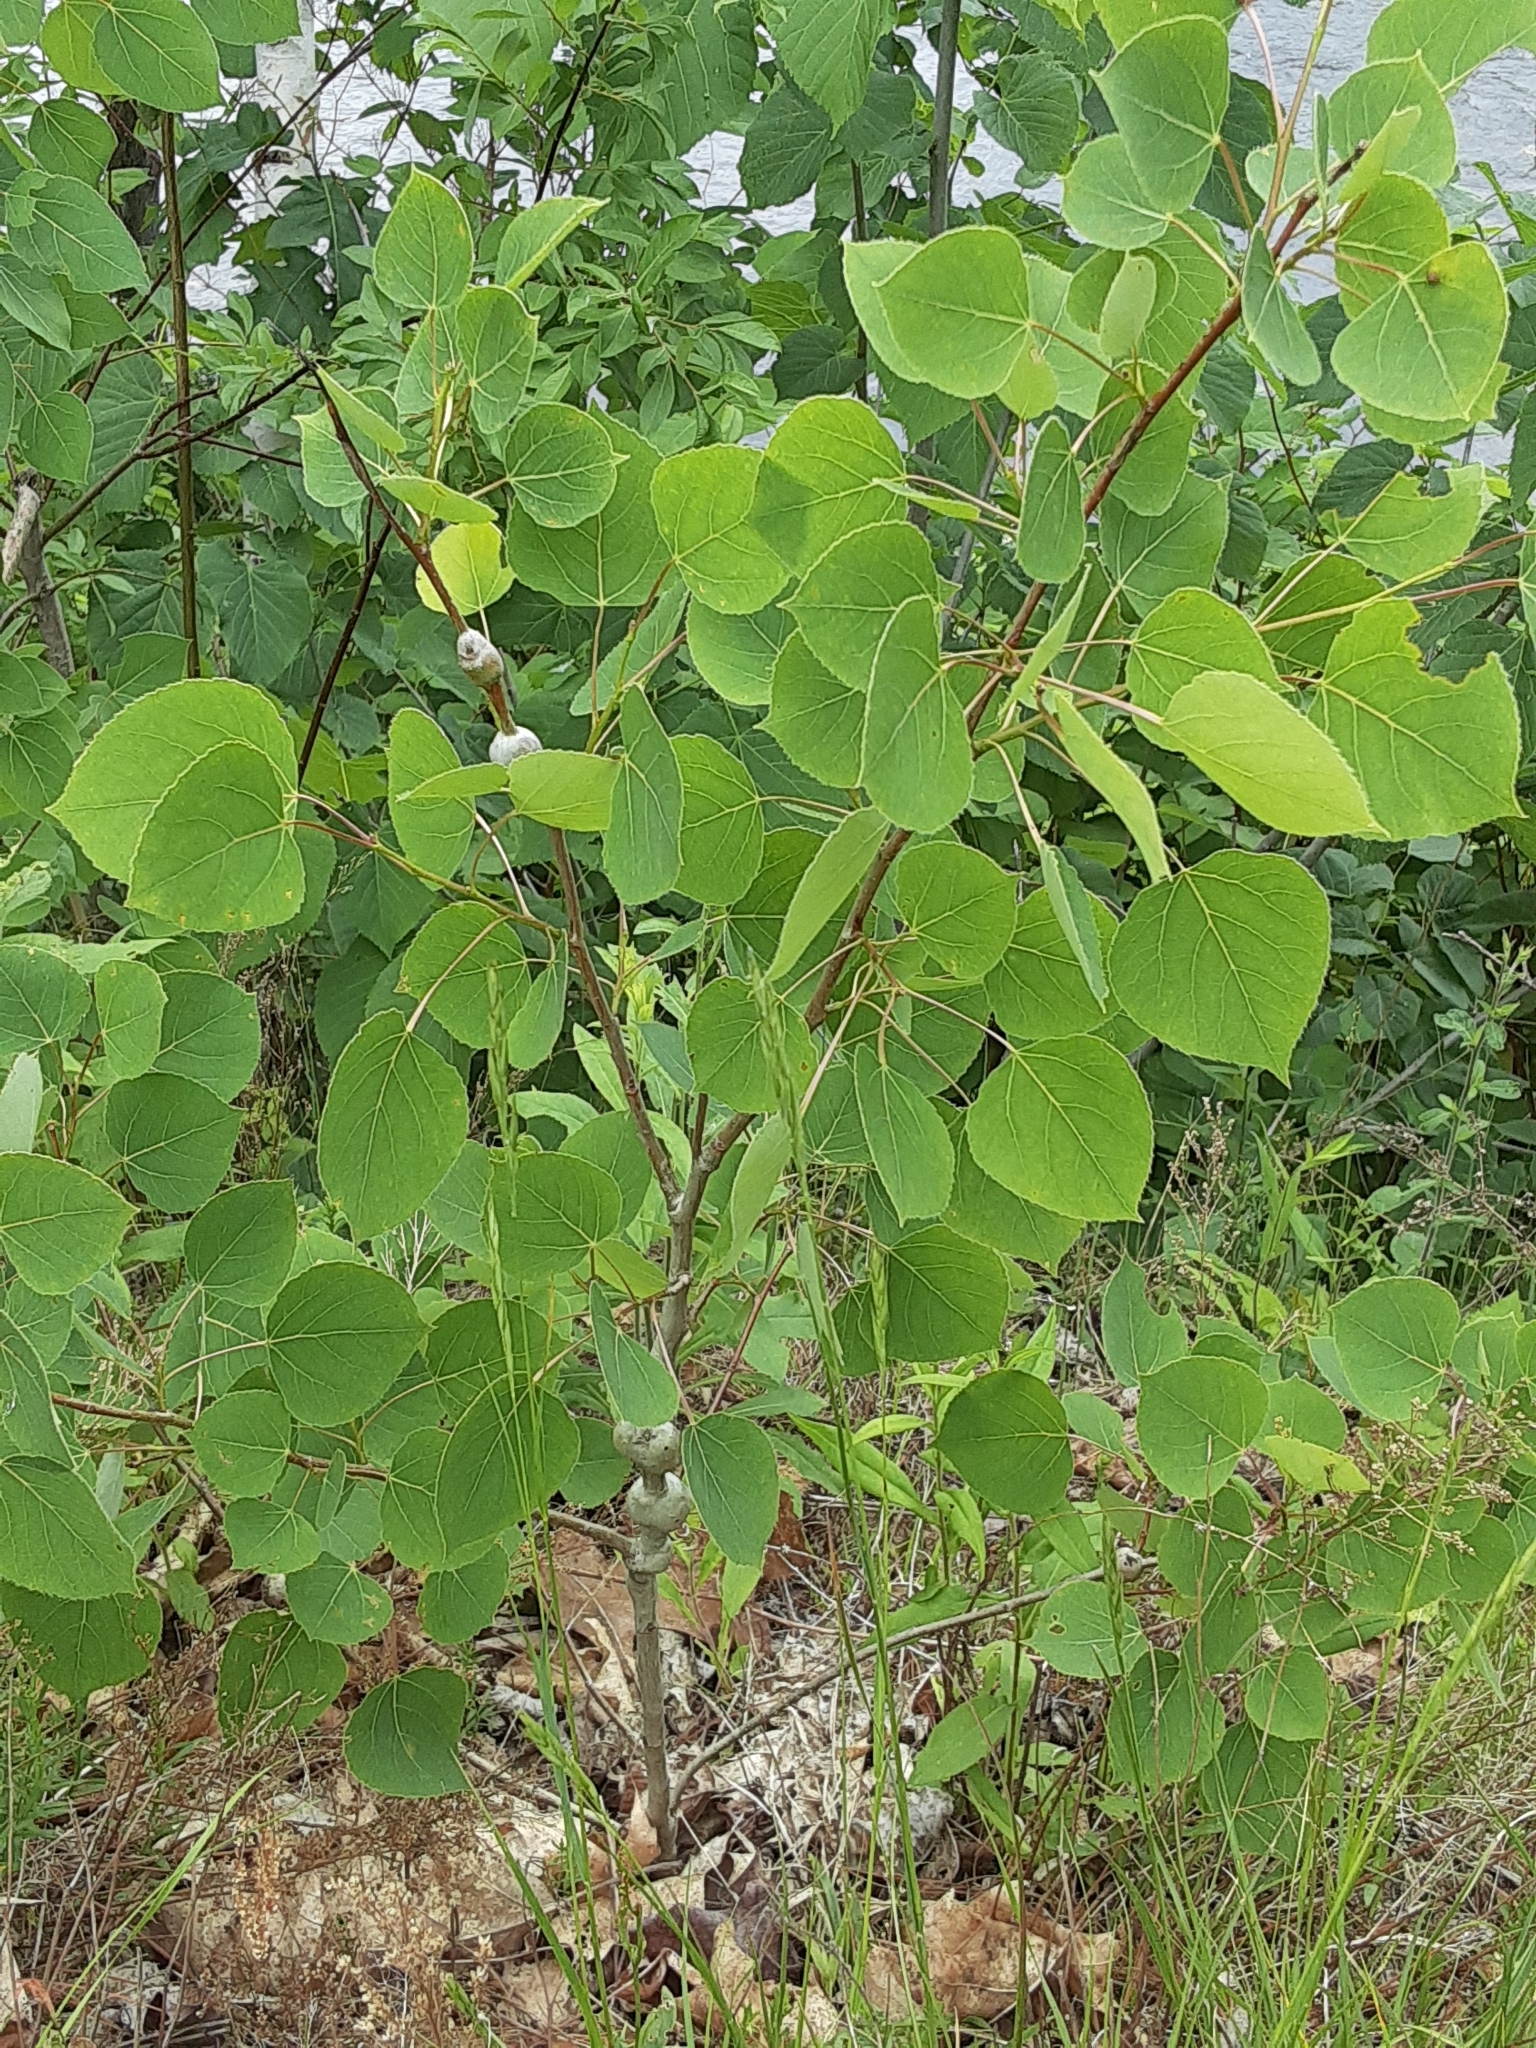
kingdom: Animalia
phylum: Arthropoda
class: Insecta
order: Diptera
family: Agromyzidae
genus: Euhexomyza
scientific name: Euhexomyza schineri
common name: Poplar twiggall fly
